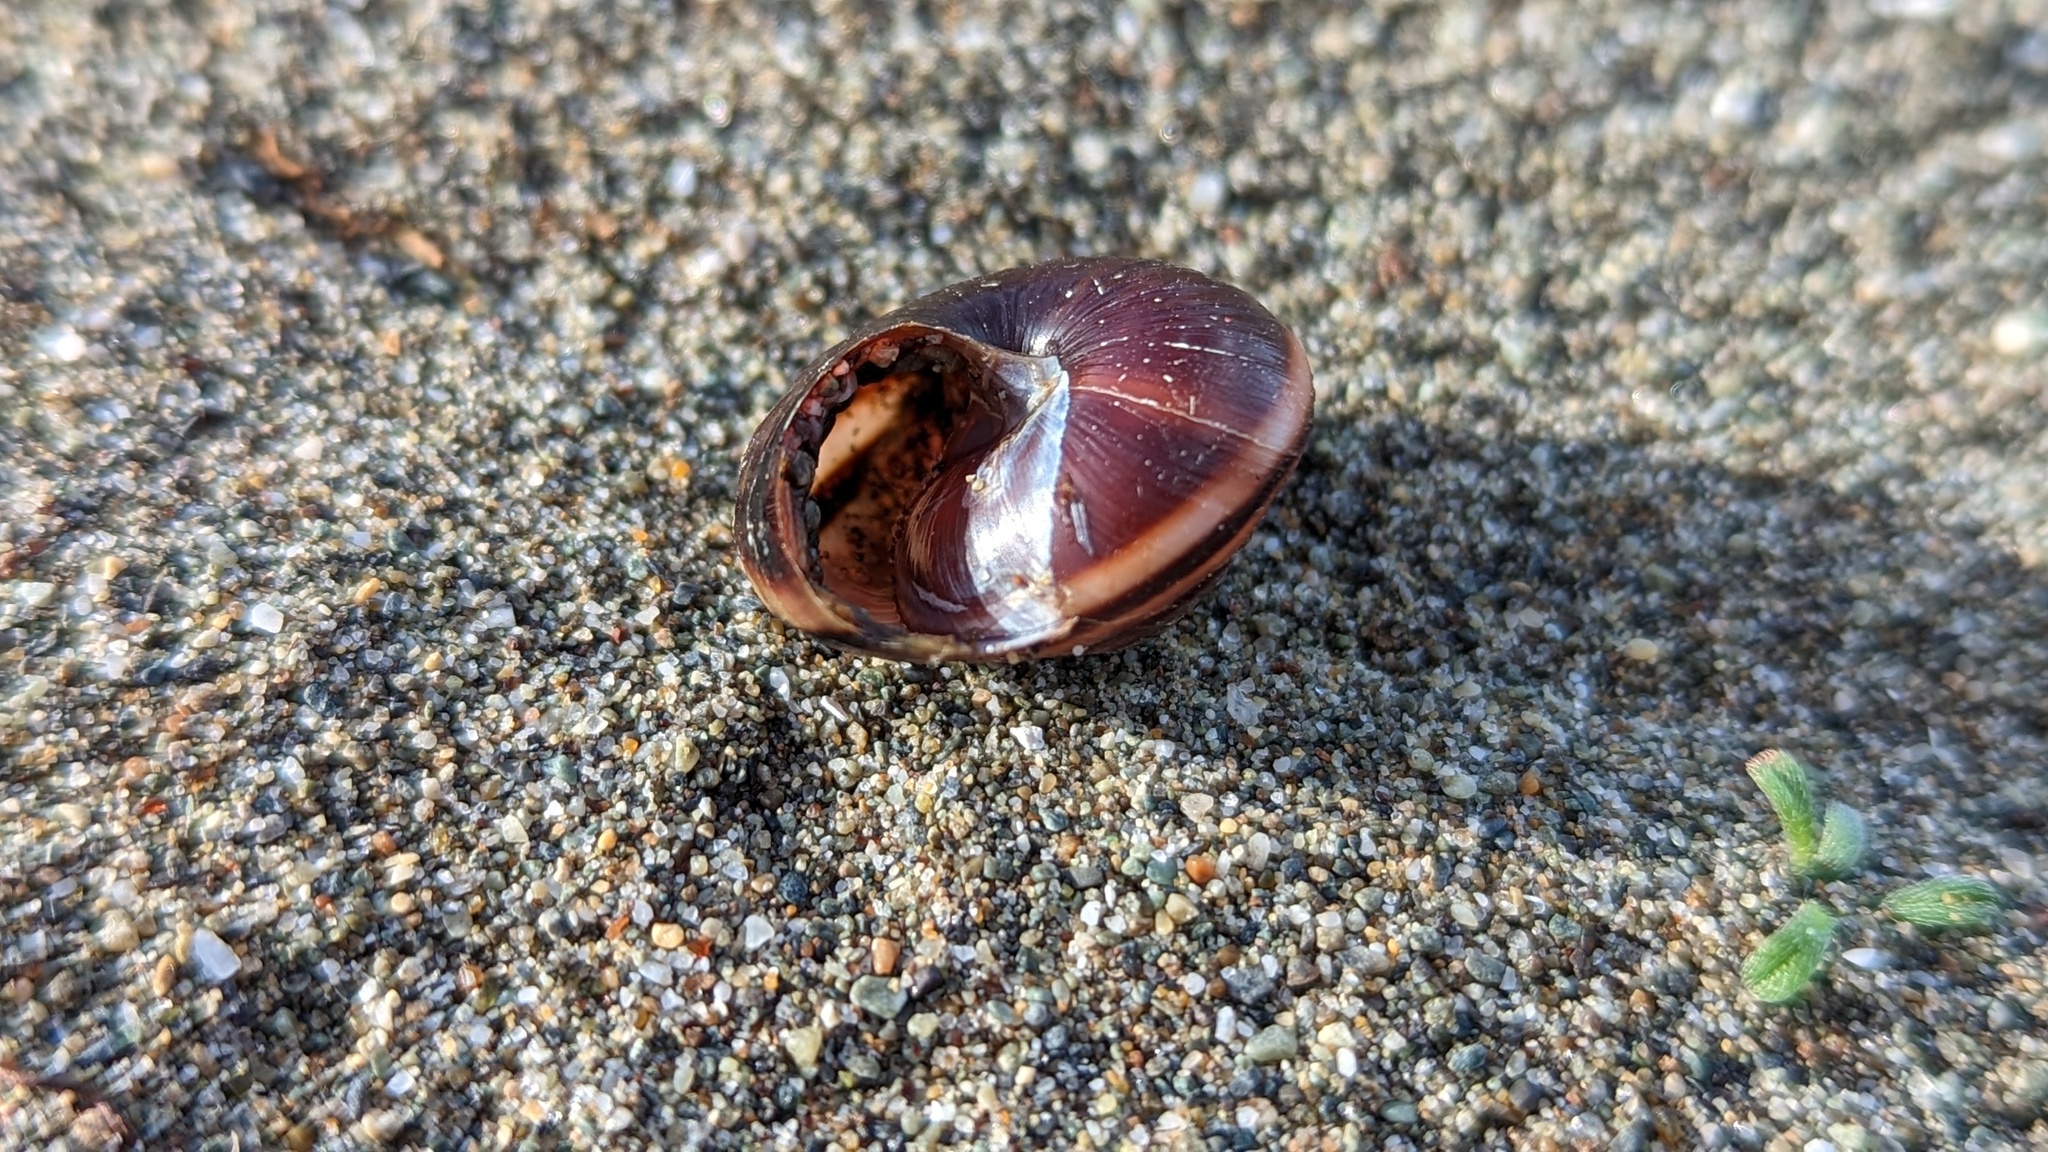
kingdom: Animalia
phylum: Mollusca
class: Gastropoda
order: Stylommatophora
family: Xanthonychidae
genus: Monadenia
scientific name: Monadenia fidelis
